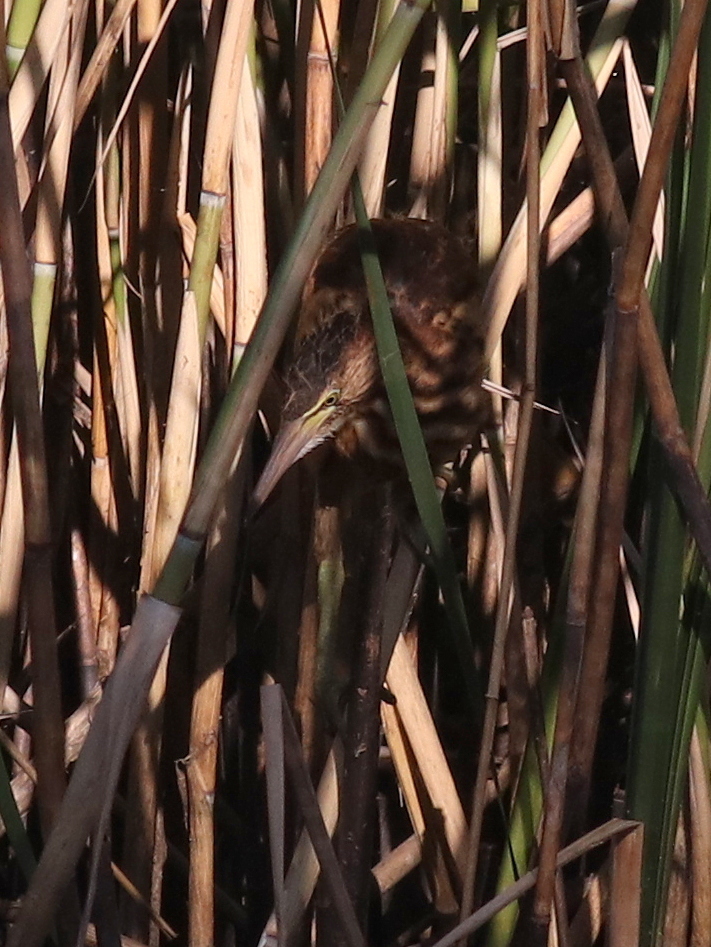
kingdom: Animalia
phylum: Chordata
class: Aves
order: Pelecaniformes
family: Ardeidae
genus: Ixobrychus
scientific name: Ixobrychus minutus
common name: Little bittern
